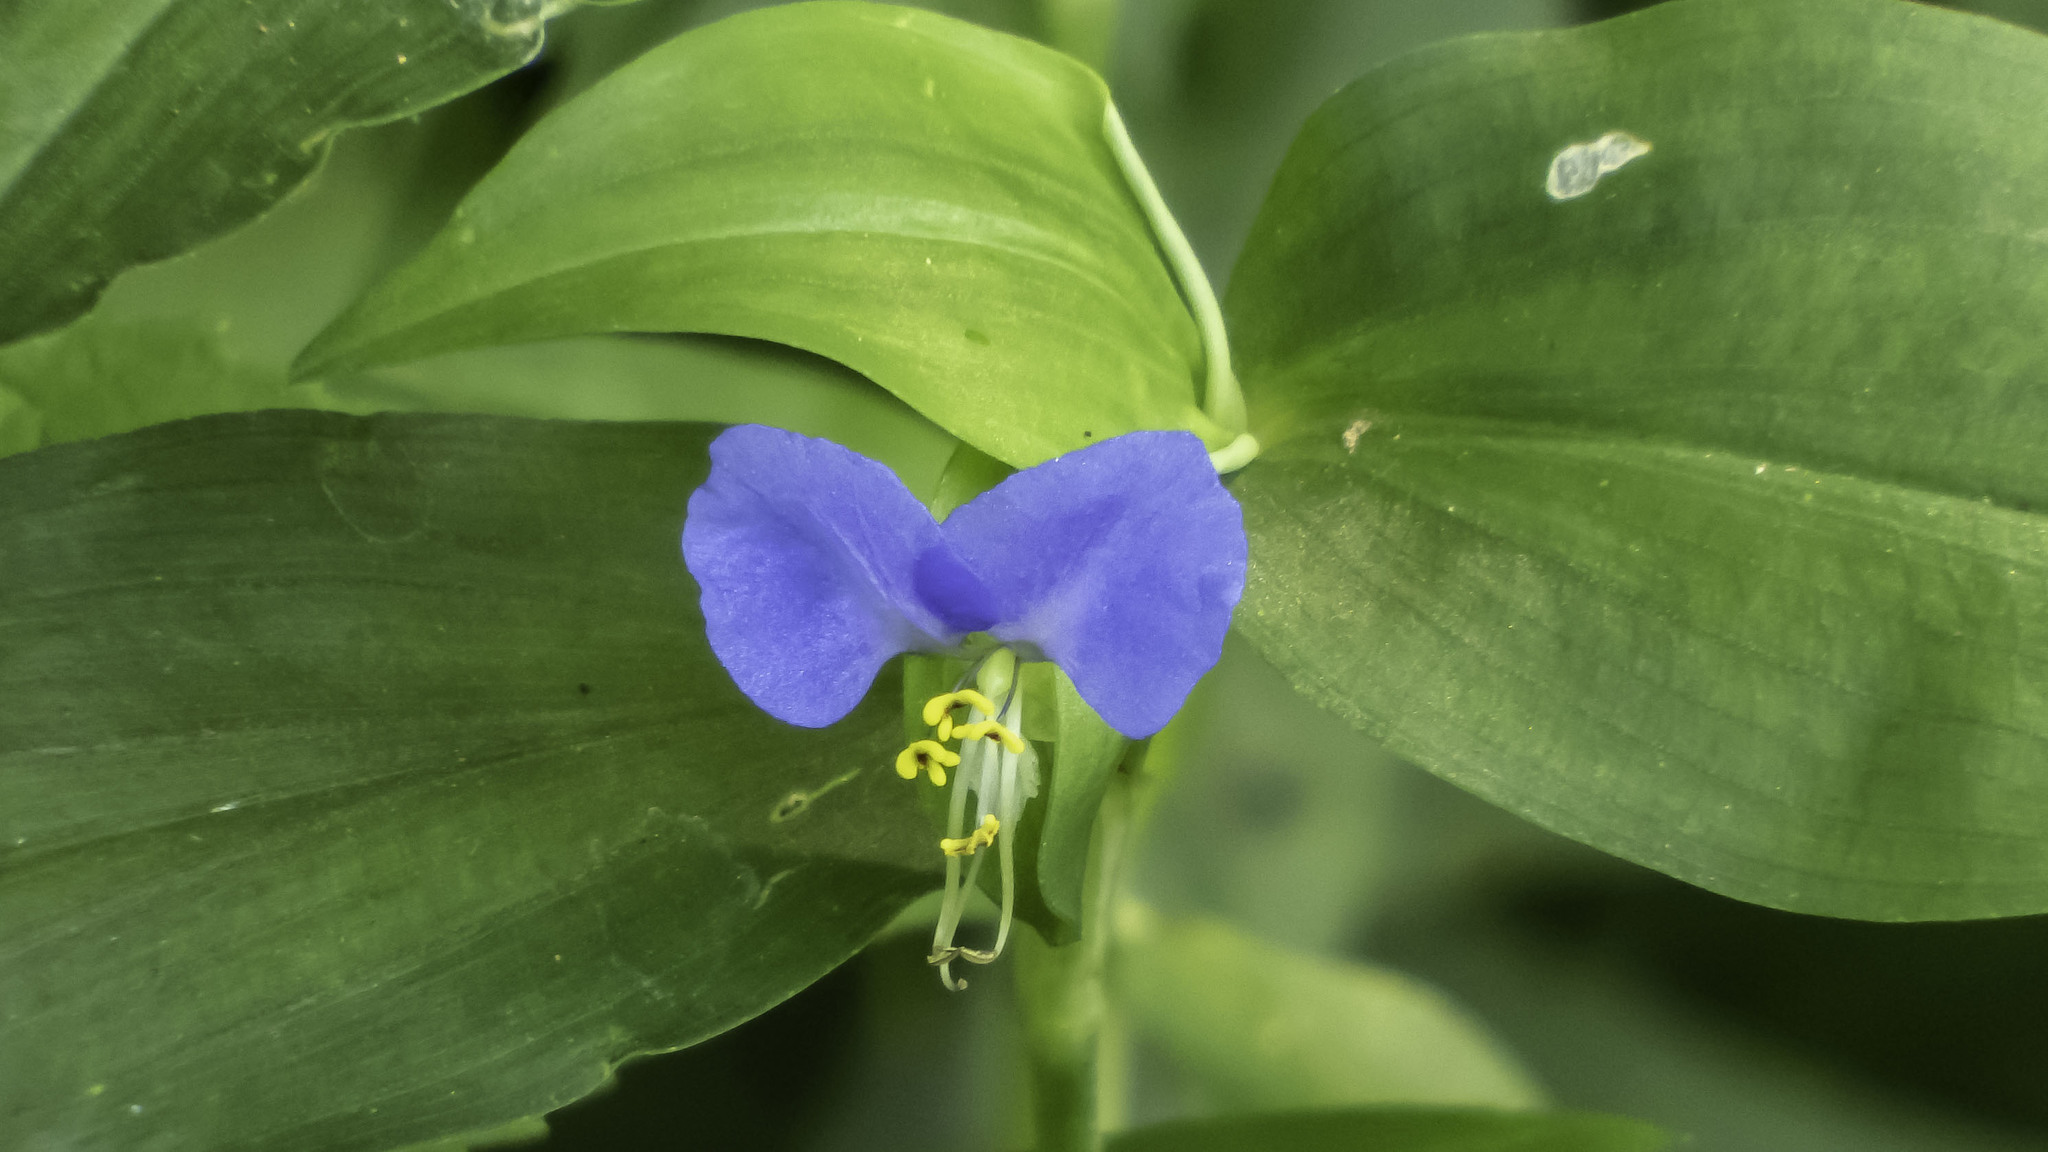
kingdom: Plantae
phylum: Tracheophyta
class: Liliopsida
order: Commelinales
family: Commelinaceae
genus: Commelina
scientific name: Commelina communis
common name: Asiatic dayflower
